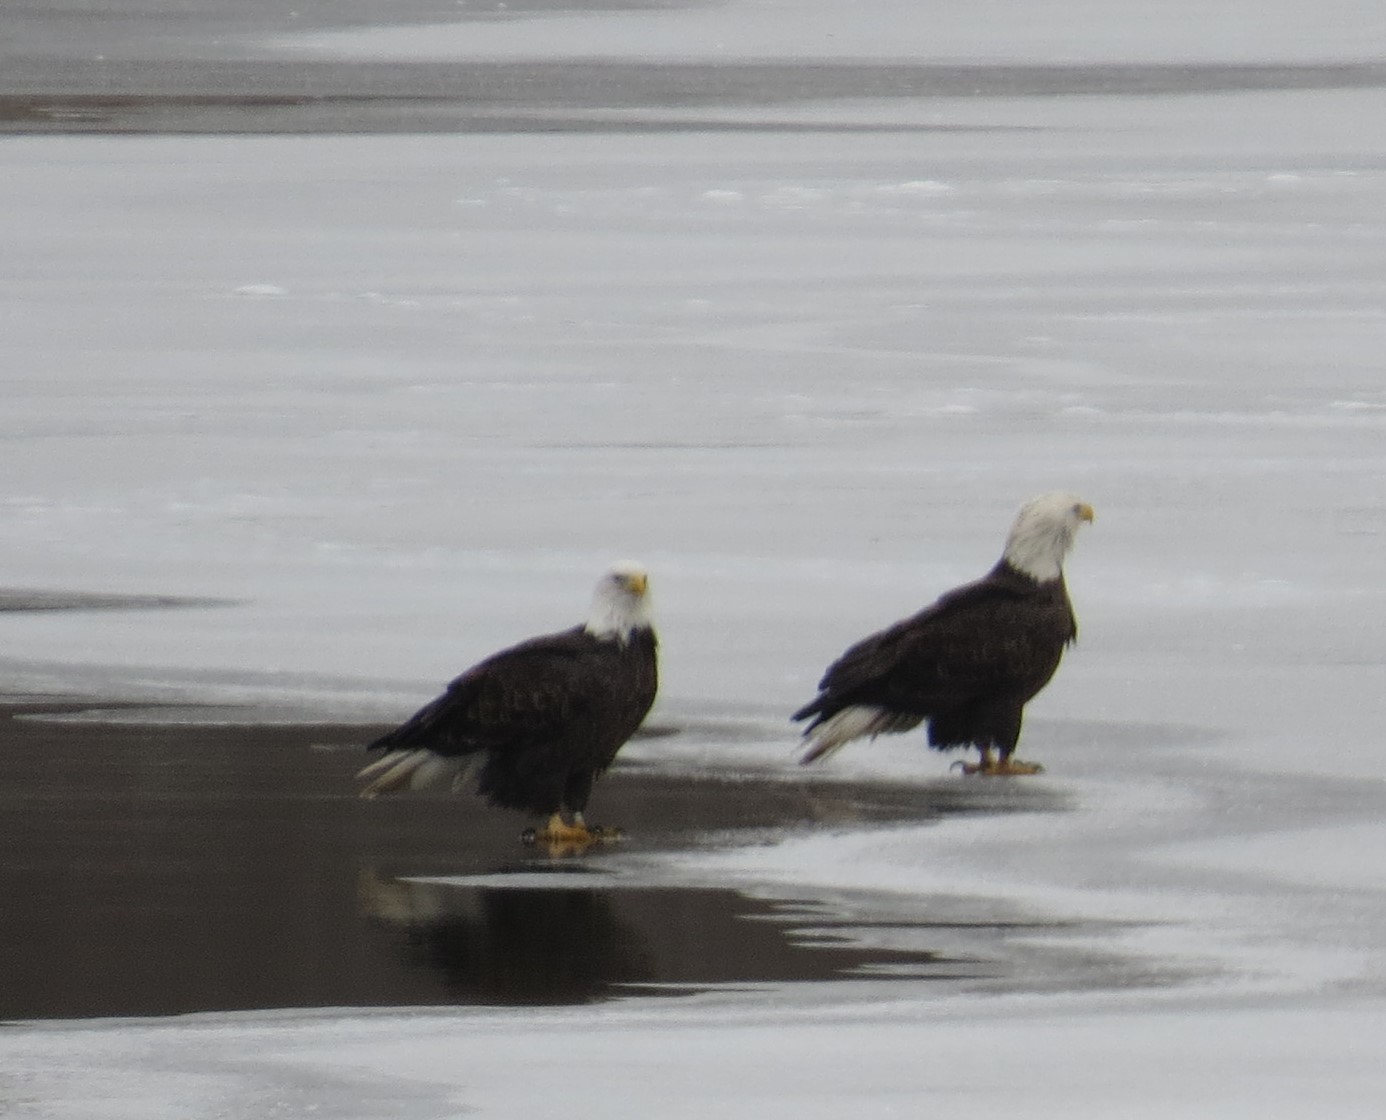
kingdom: Animalia
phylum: Chordata
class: Aves
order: Accipitriformes
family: Accipitridae
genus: Haliaeetus
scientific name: Haliaeetus leucocephalus
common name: Bald eagle
